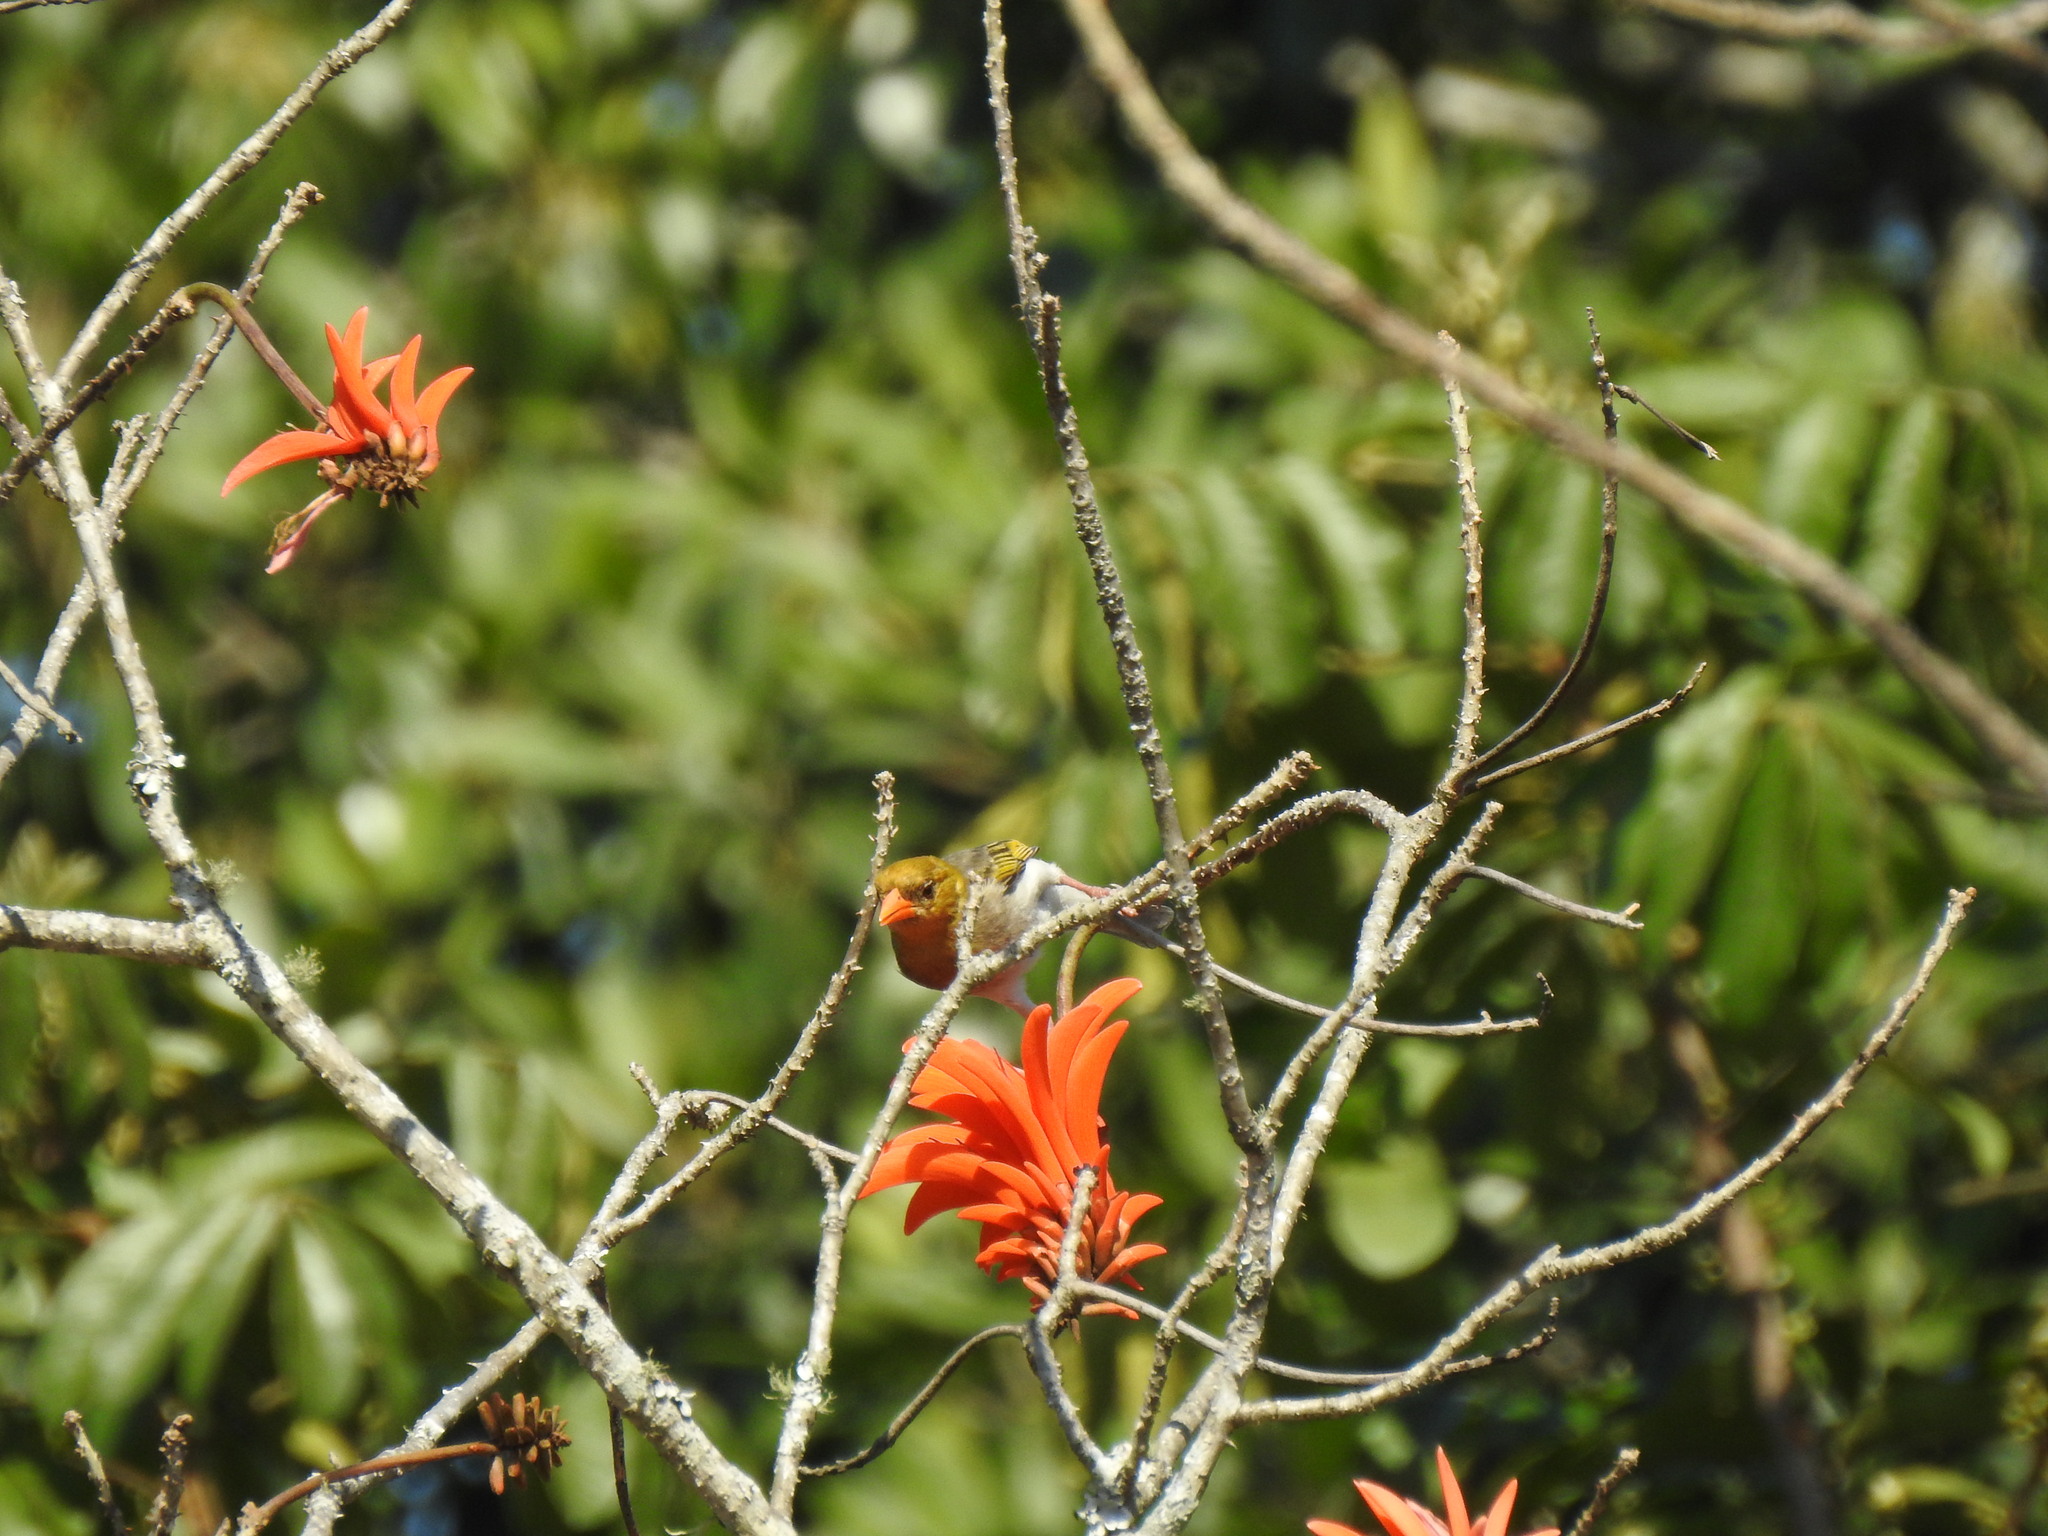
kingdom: Animalia
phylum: Chordata
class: Aves
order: Passeriformes
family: Ploceidae
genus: Anaplectes
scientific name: Anaplectes rubriceps
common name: Red-headed weaver
